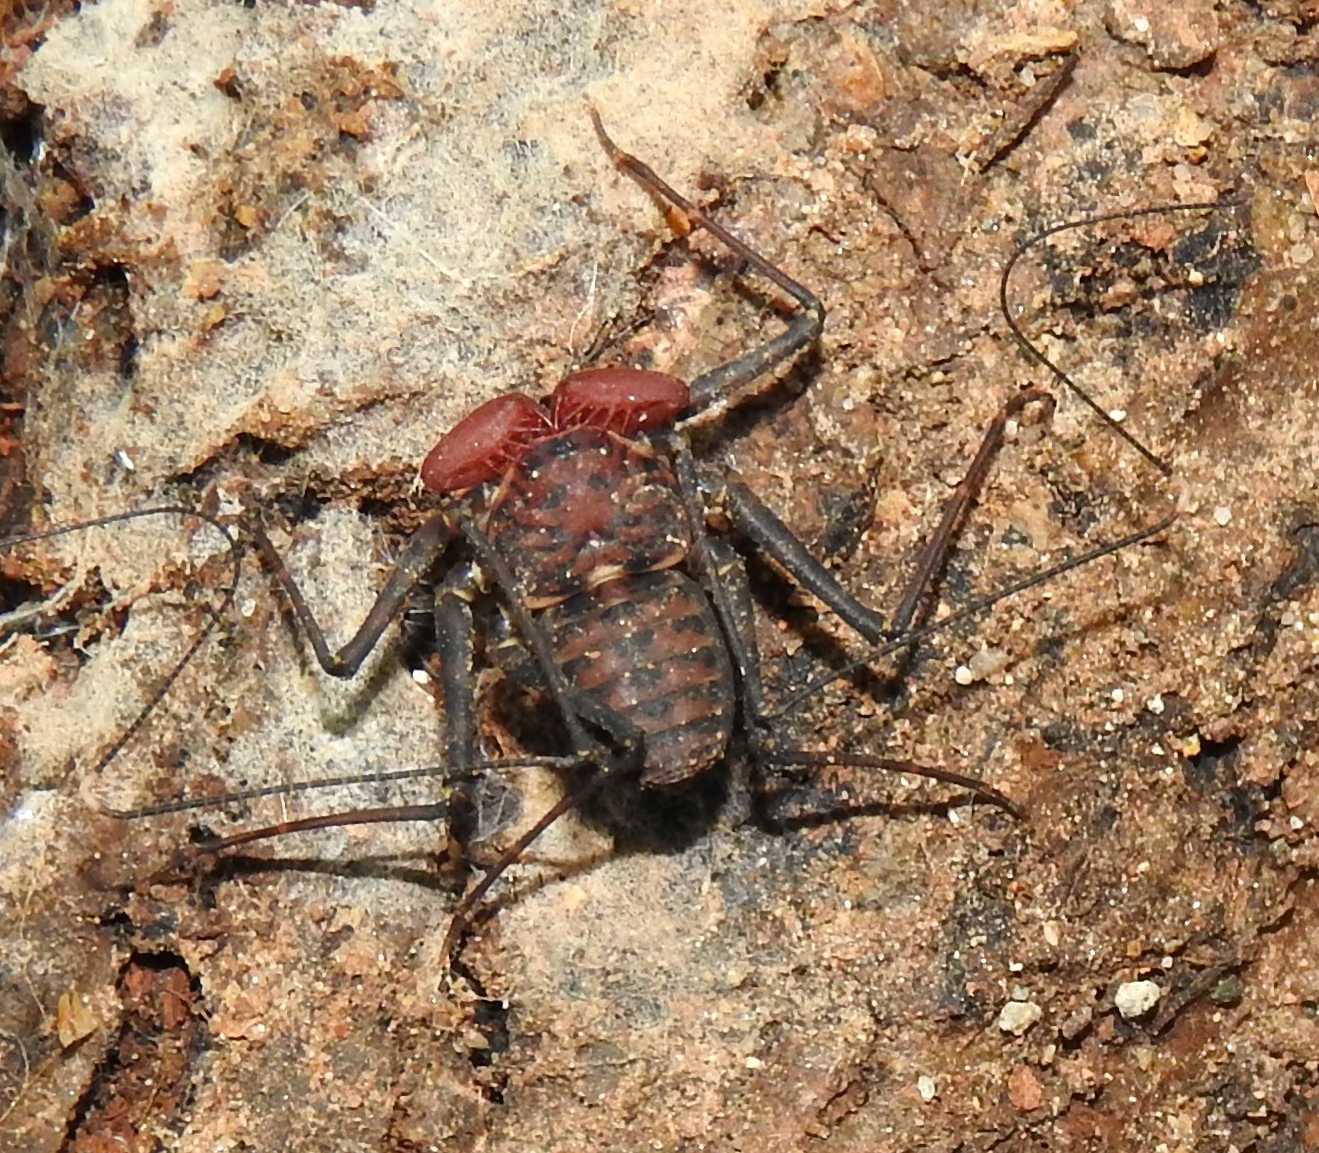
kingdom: Animalia
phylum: Arthropoda
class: Arachnida
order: Amblypygi
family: Phrynidae
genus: Phrynus
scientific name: Phrynus operculatus
